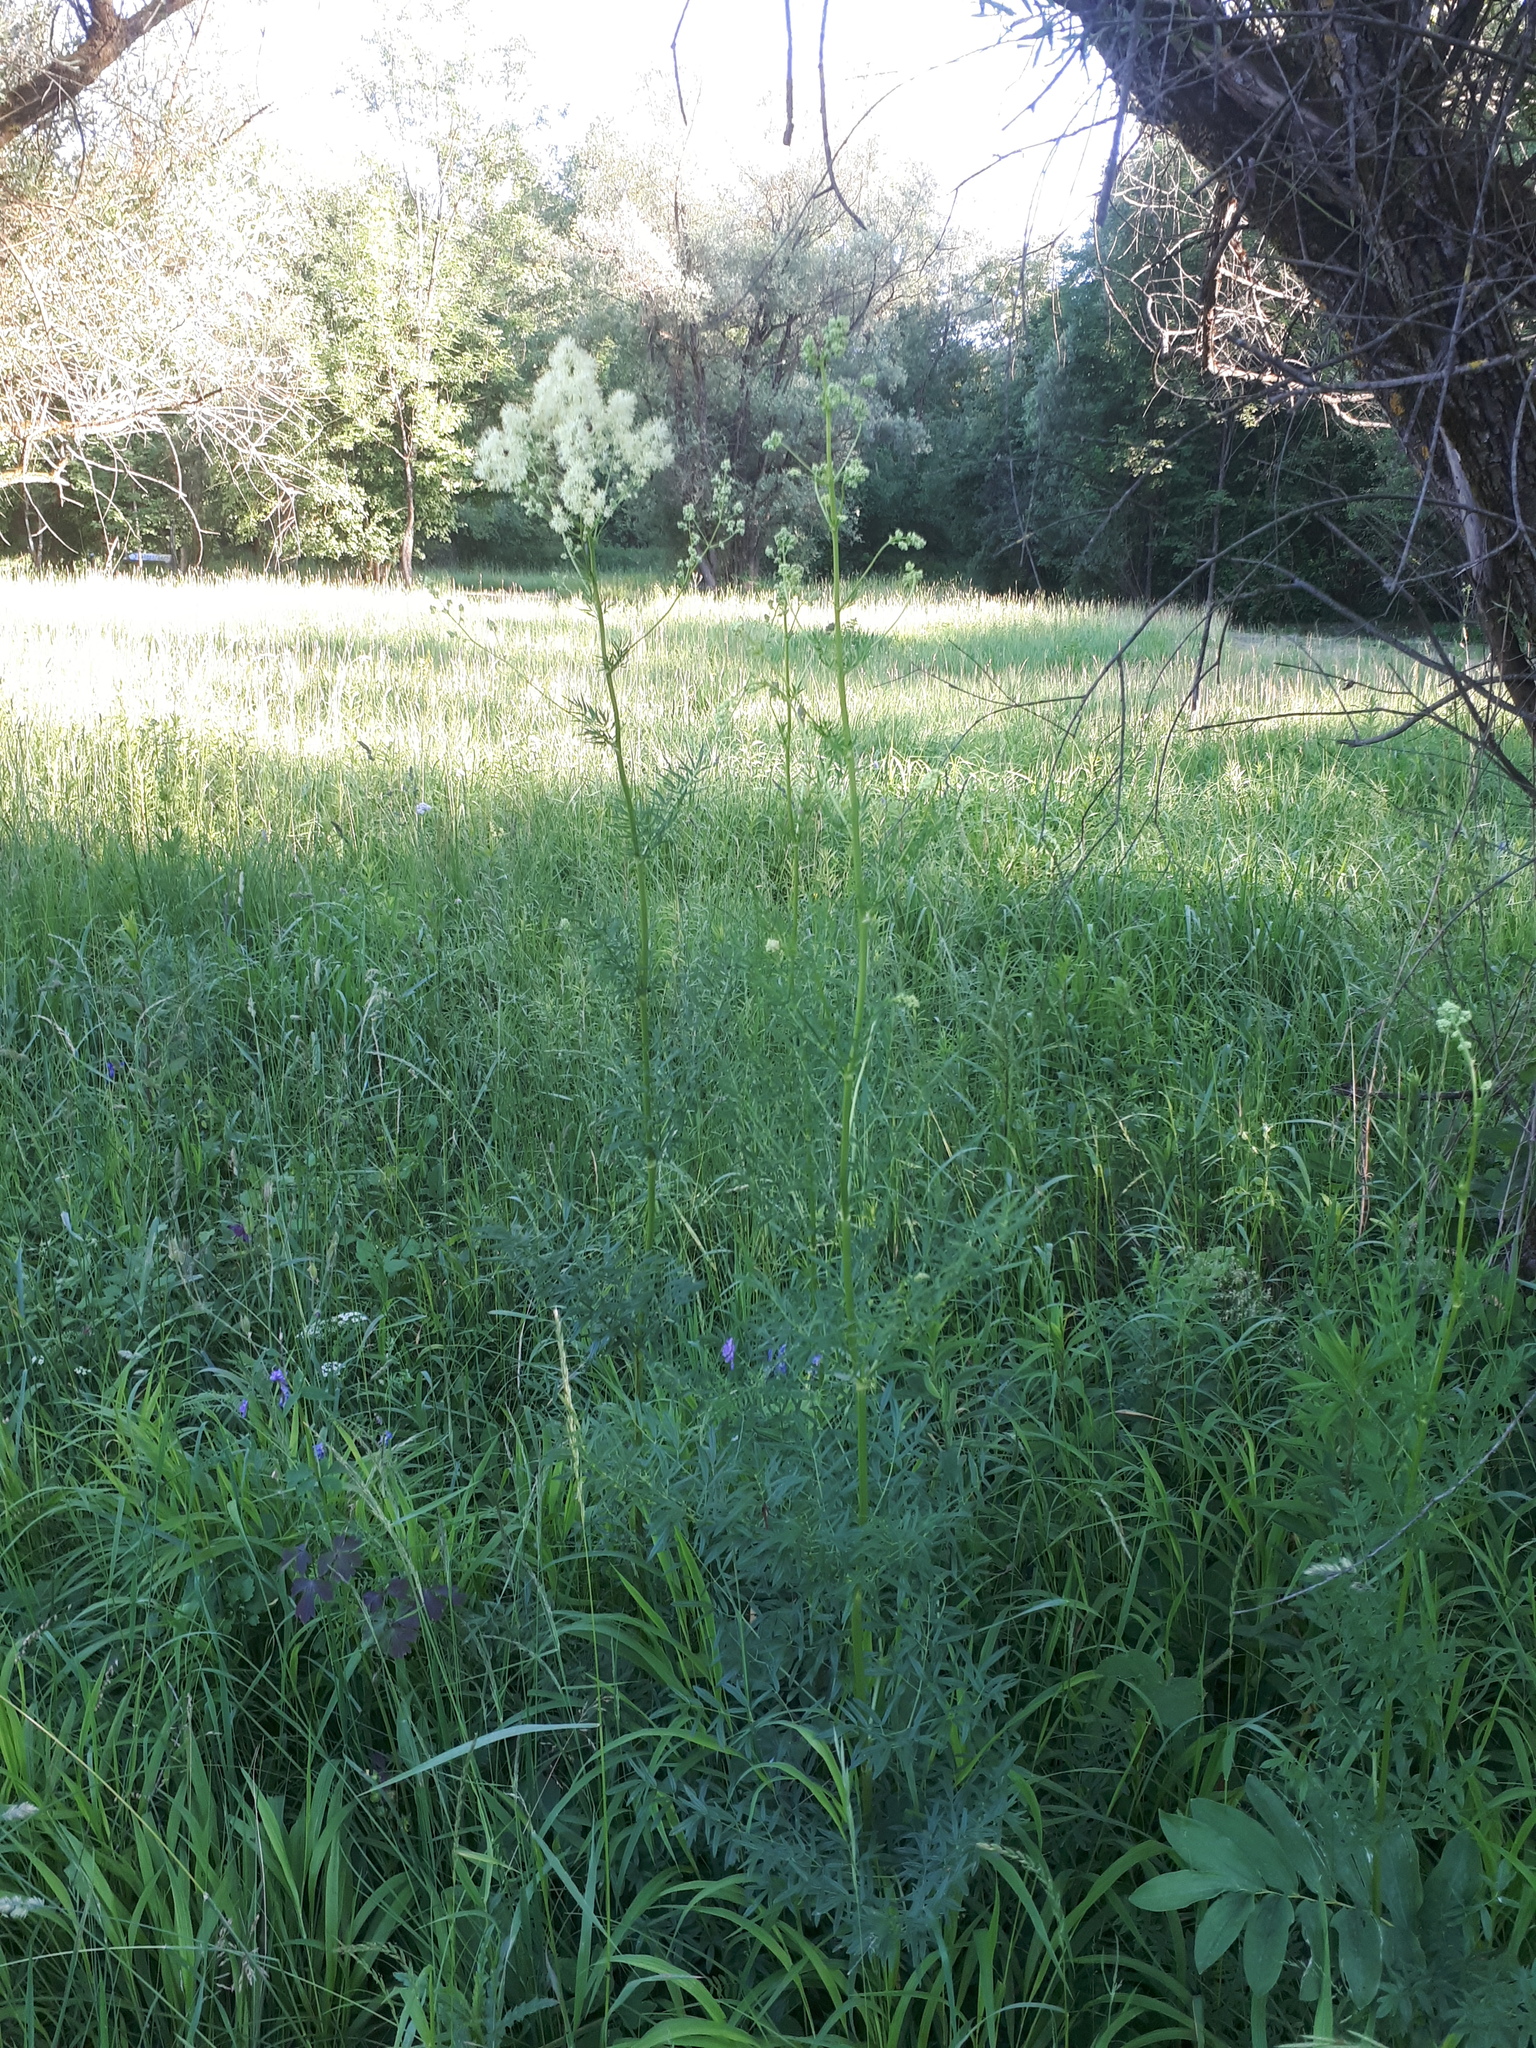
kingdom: Plantae
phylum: Tracheophyta
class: Magnoliopsida
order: Ranunculales
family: Ranunculaceae
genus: Thalictrum
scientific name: Thalictrum lucidum
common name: Shining meadow-rue
